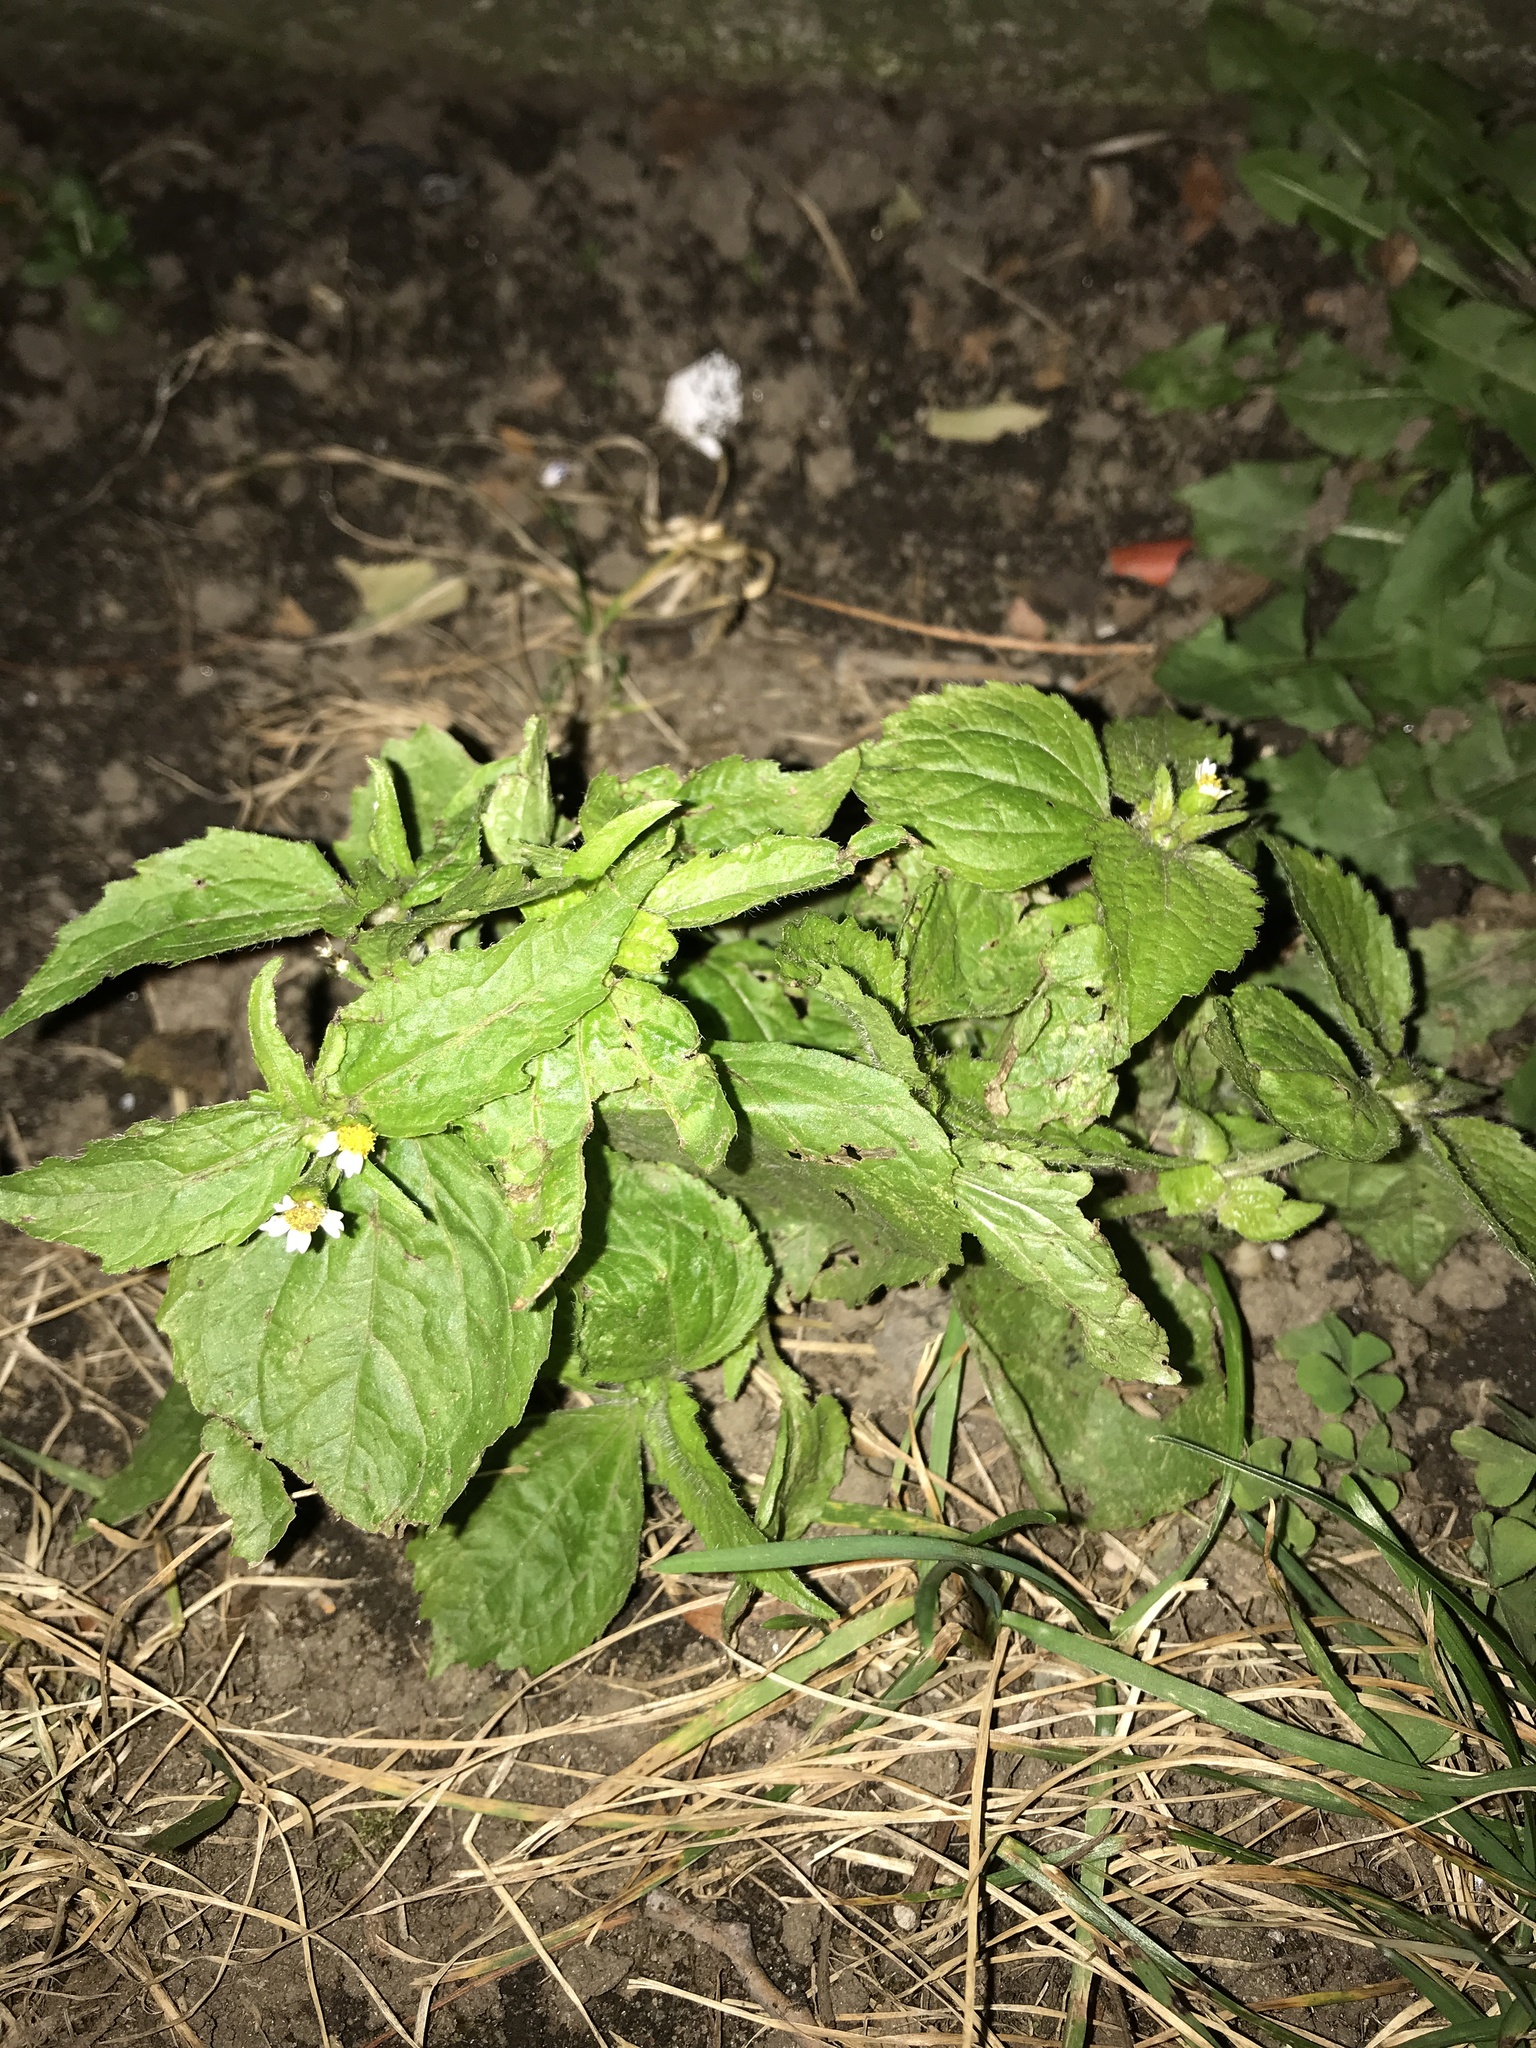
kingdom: Plantae
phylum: Tracheophyta
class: Magnoliopsida
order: Asterales
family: Asteraceae
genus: Galinsoga
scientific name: Galinsoga quadriradiata
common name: Shaggy soldier
